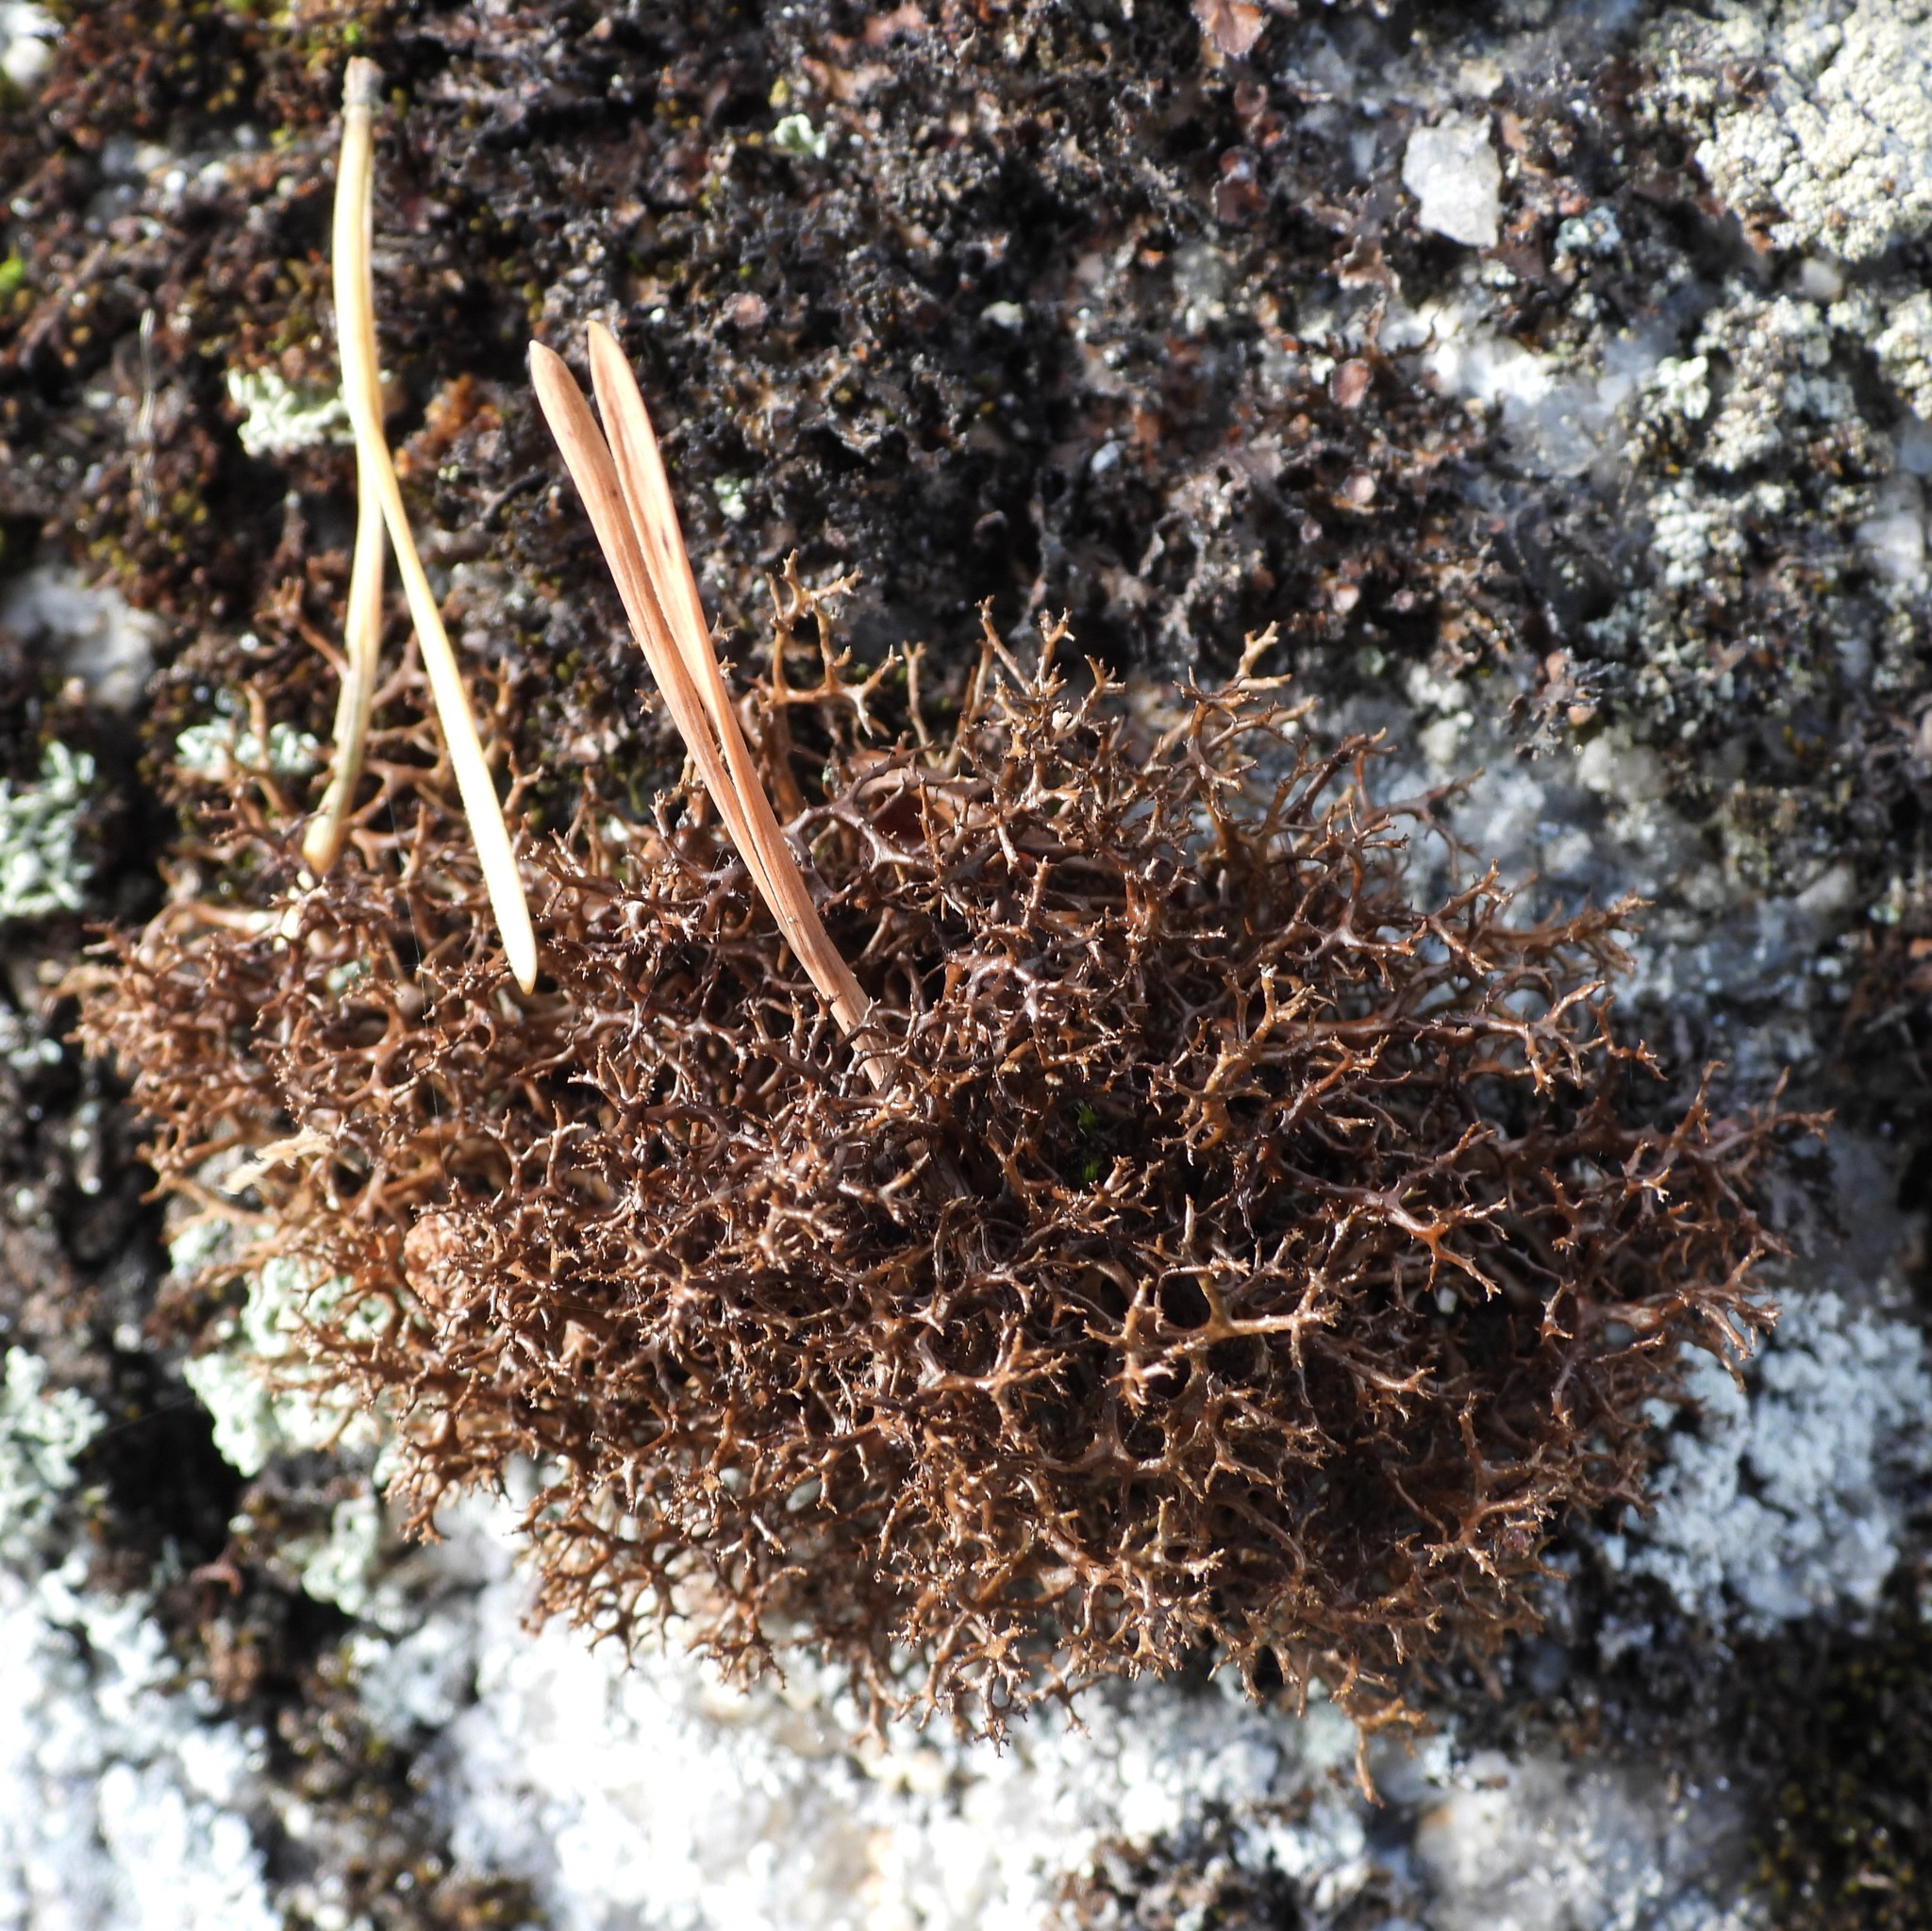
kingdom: Fungi
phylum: Ascomycota
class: Lecanoromycetes
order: Lecanorales
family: Parmeliaceae
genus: Cetraria
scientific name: Cetraria muricata
